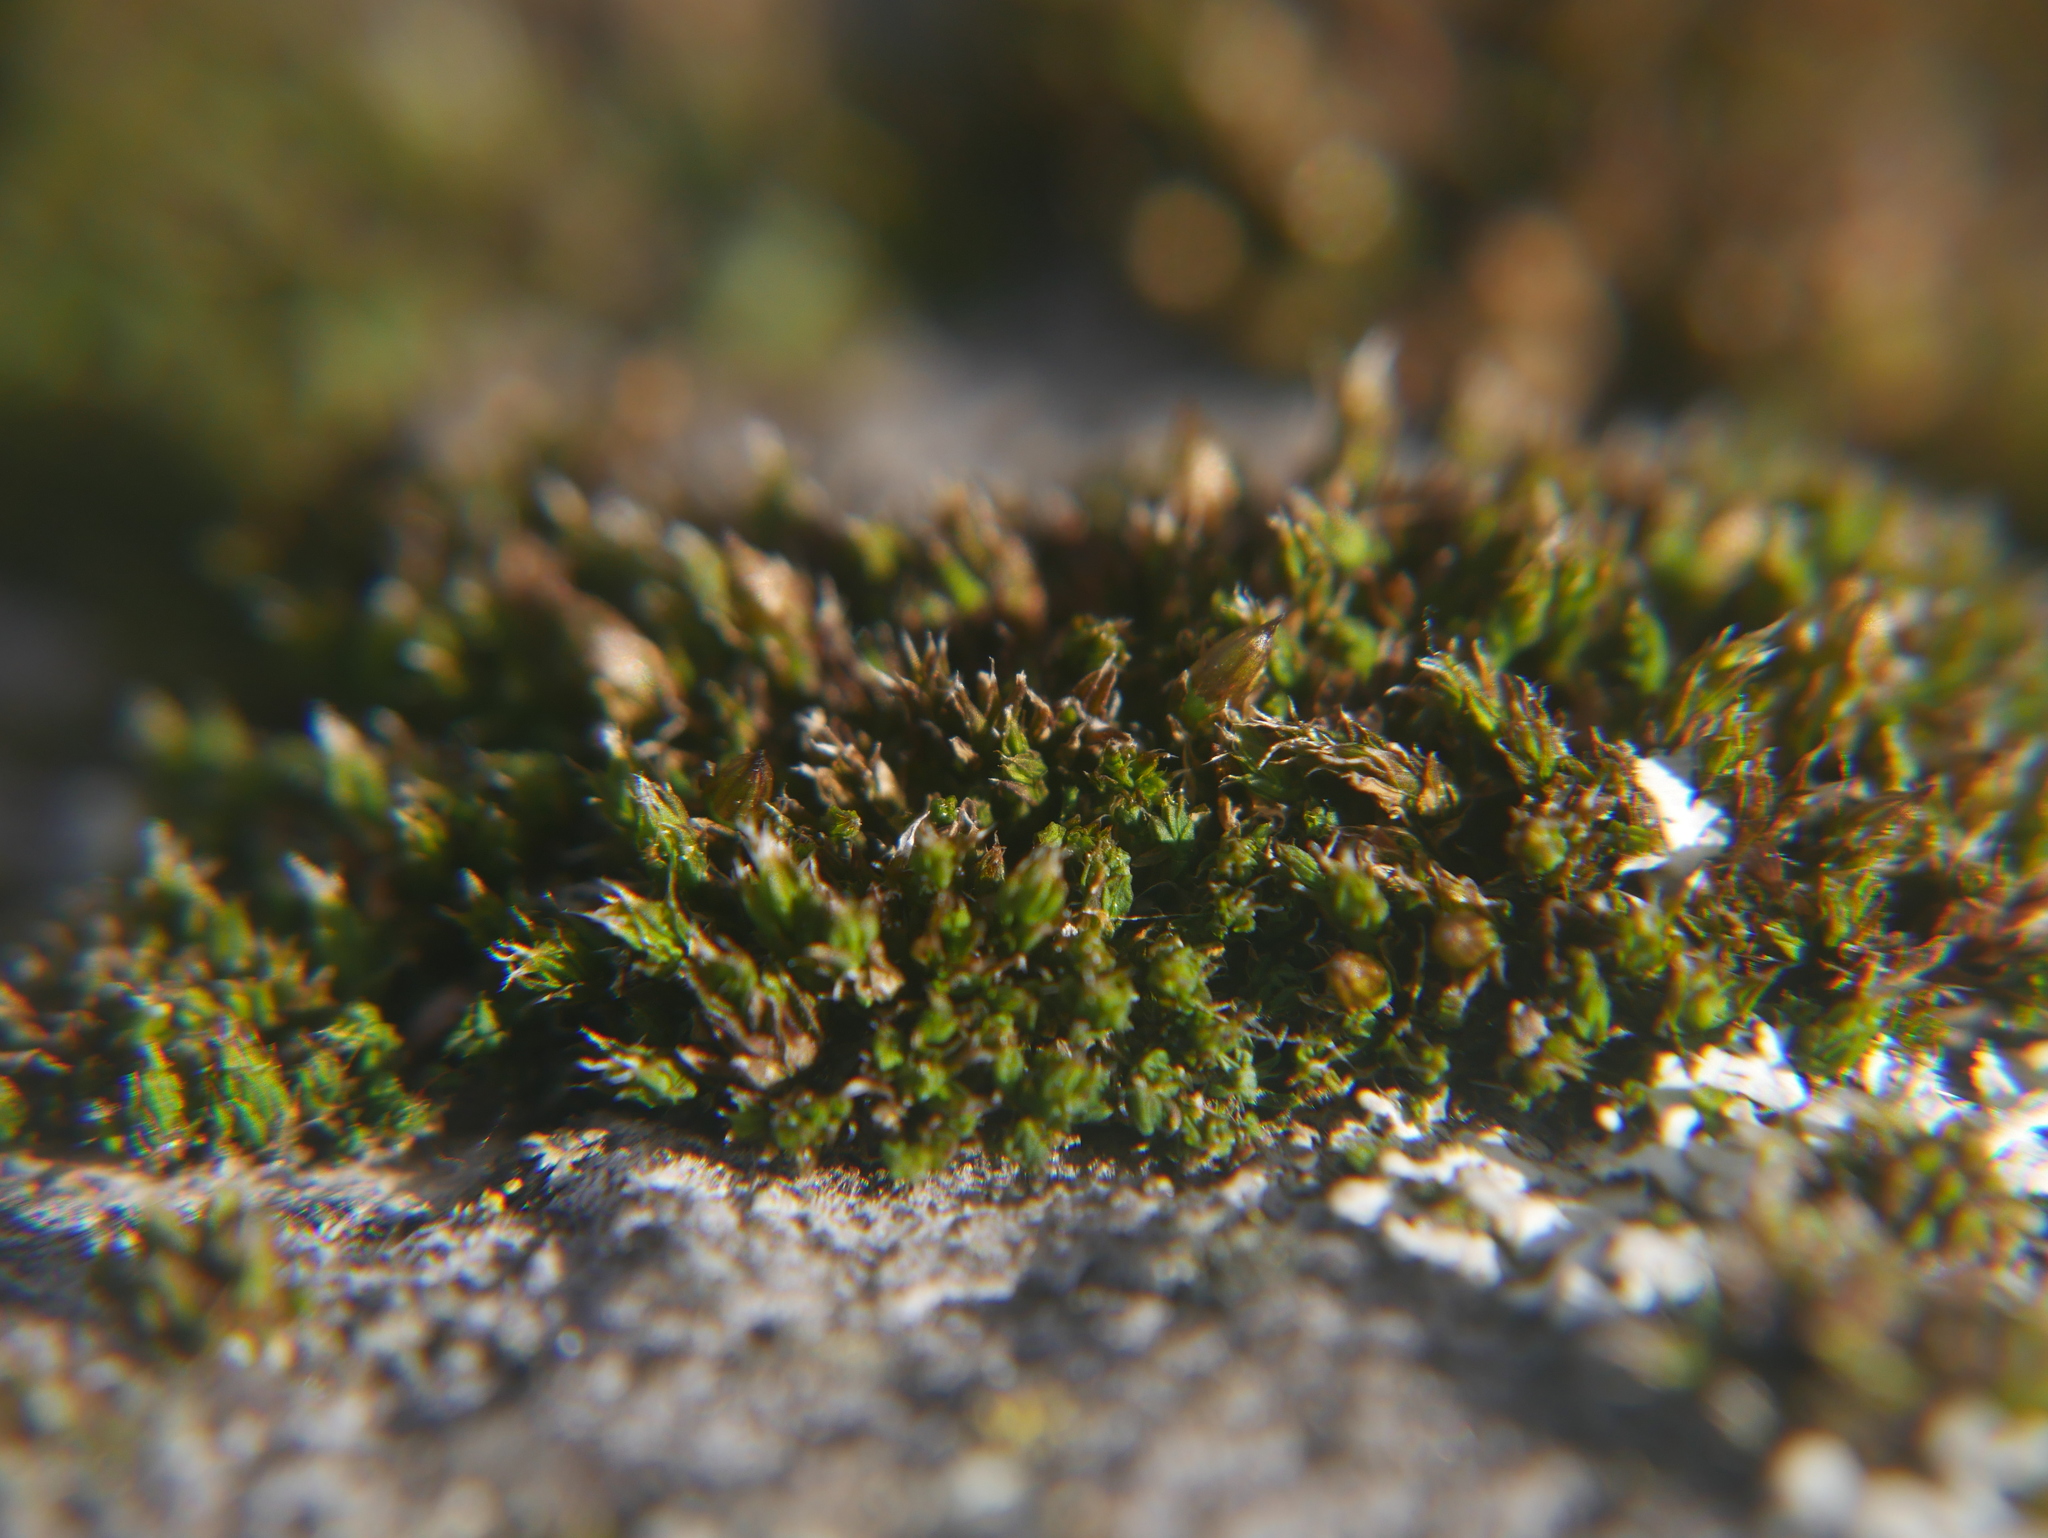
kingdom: Plantae
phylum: Bryophyta
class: Bryopsida
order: Orthotrichales
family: Orthotrichaceae
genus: Orthotrichum
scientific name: Orthotrichum diaphanum
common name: White-tipped bristle-moss
